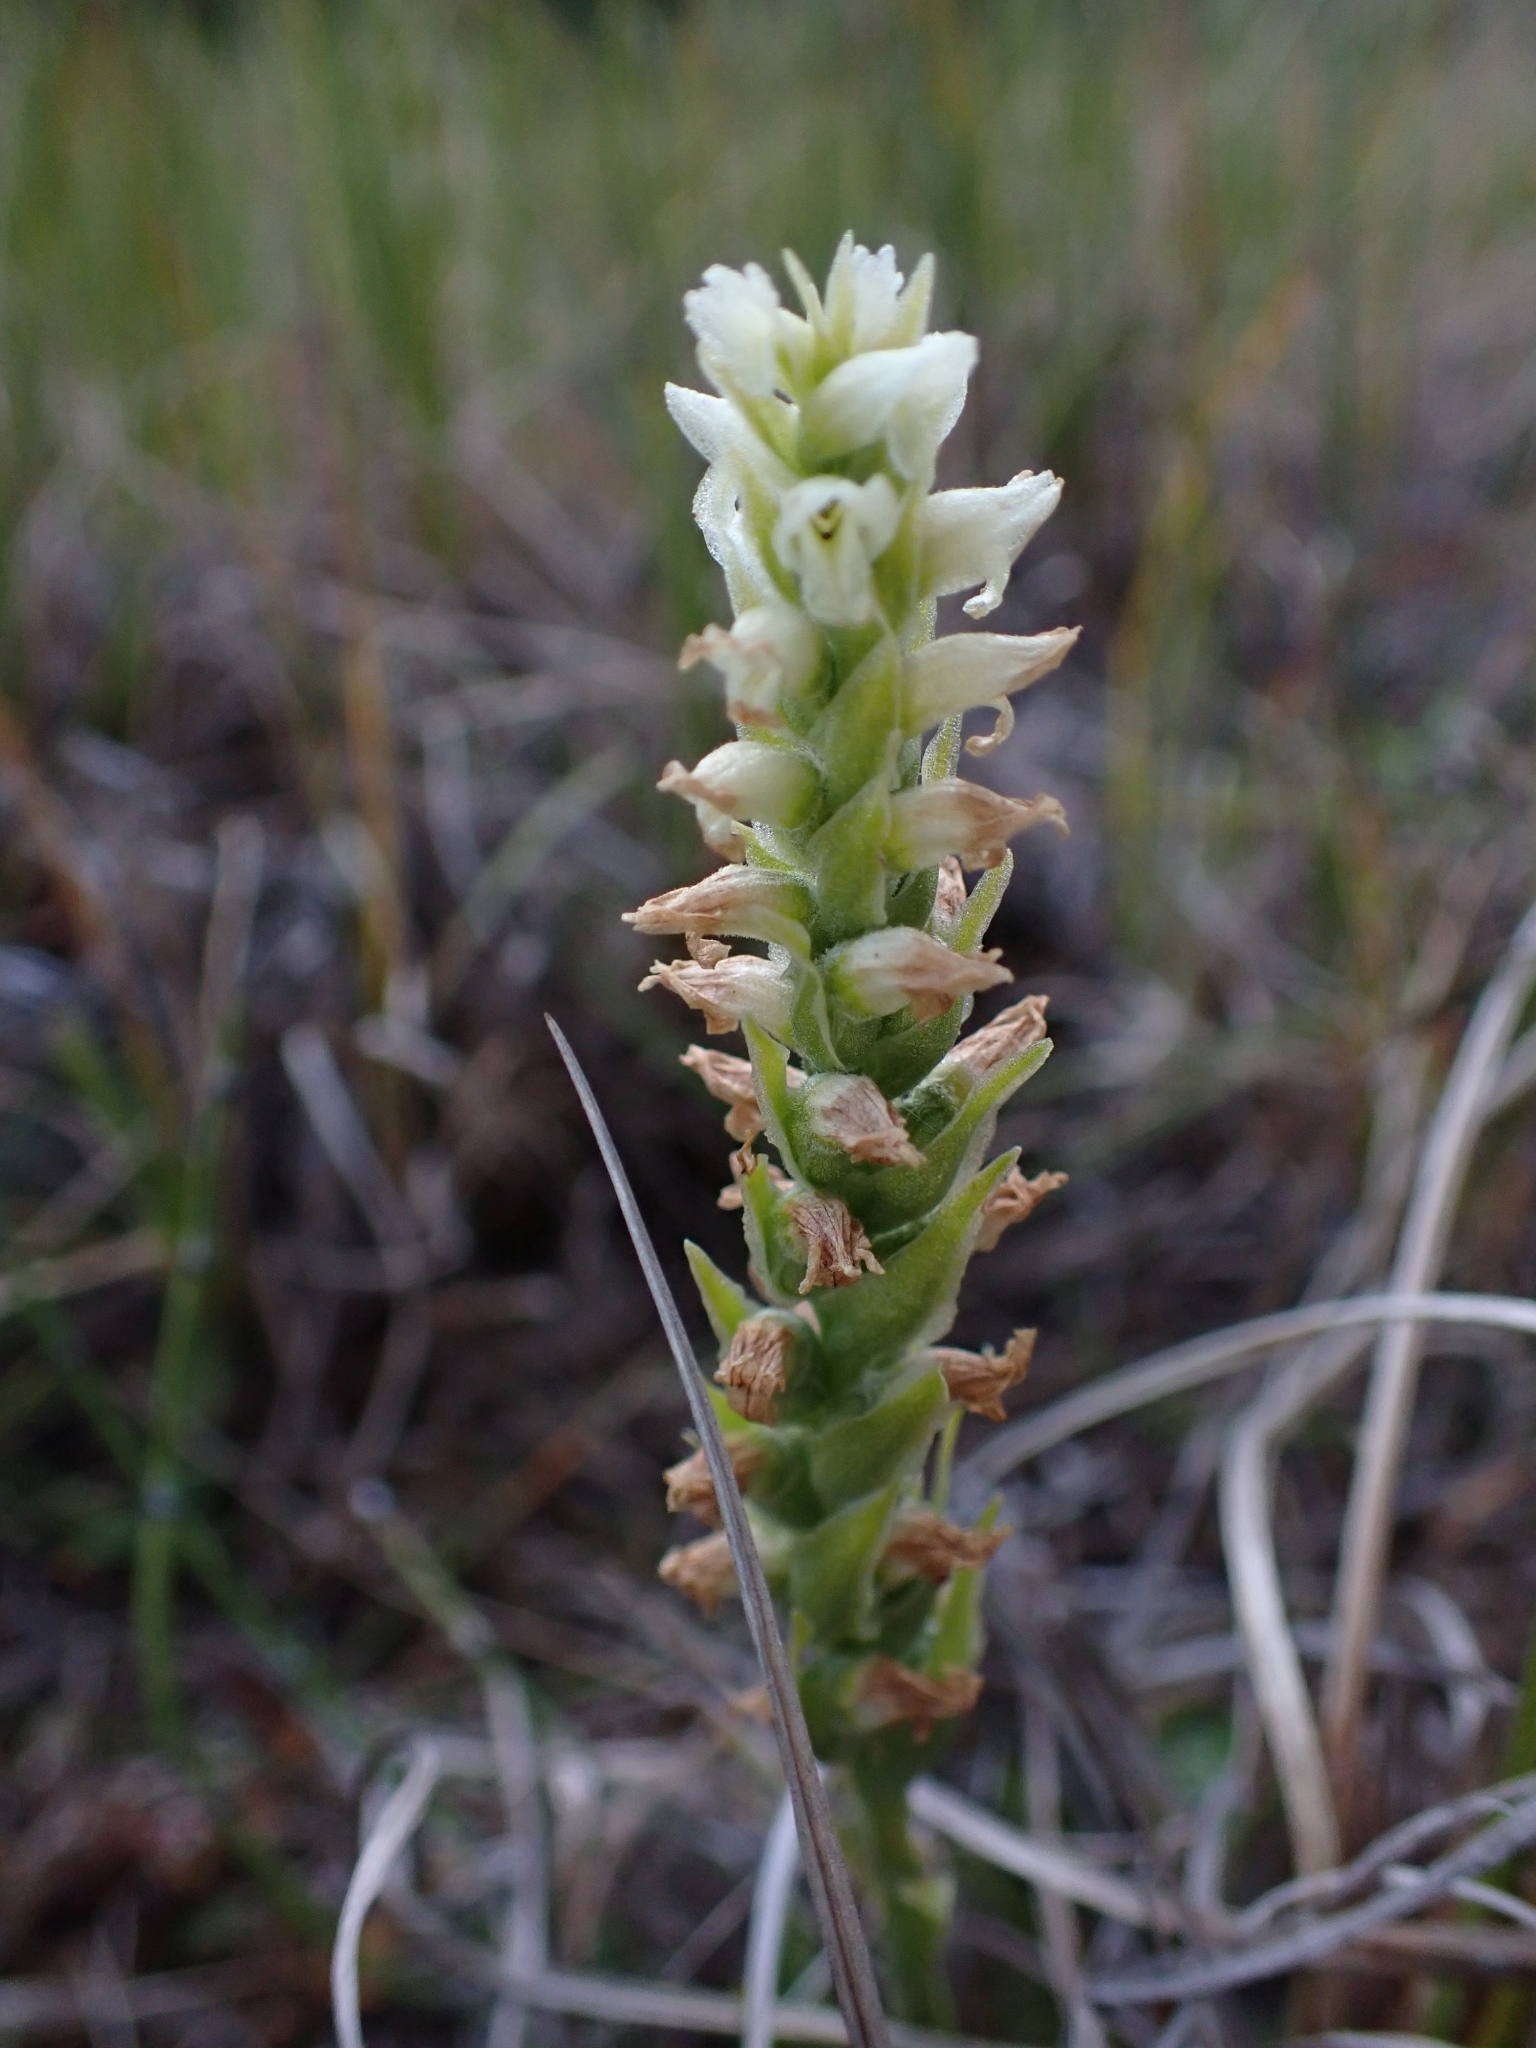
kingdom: Plantae
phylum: Tracheophyta
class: Liliopsida
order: Asparagales
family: Orchidaceae
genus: Spiranthes
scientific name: Spiranthes romanzoffiana
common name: Irish lady's-tresses
